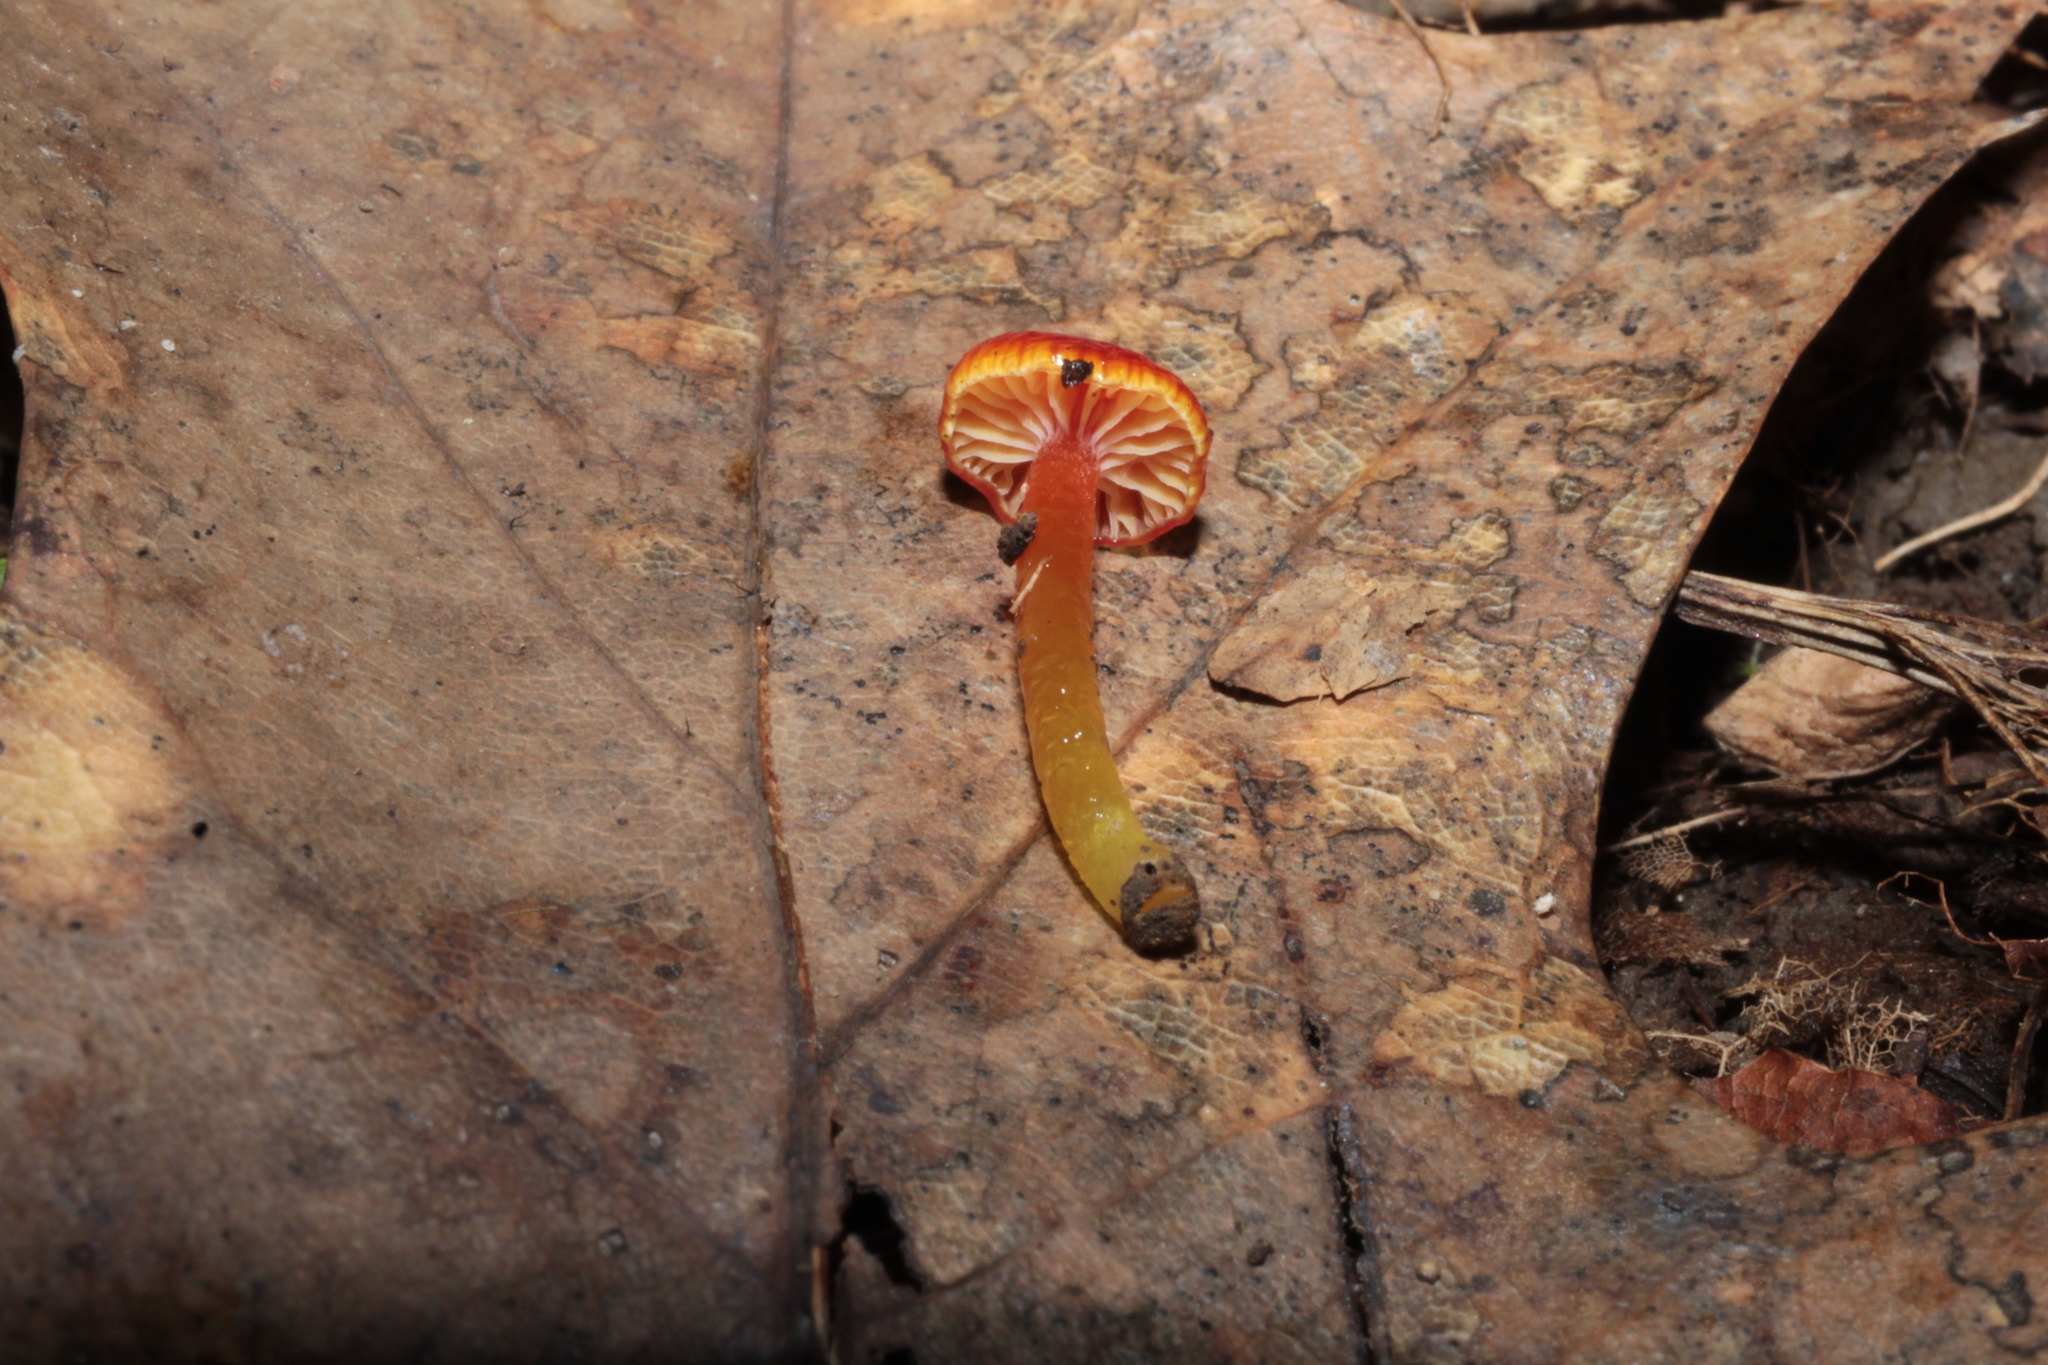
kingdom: Fungi
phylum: Basidiomycota
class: Agaricomycetes
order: Agaricales
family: Hygrophoraceae
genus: Hygrocybe
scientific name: Hygrocybe minutula
